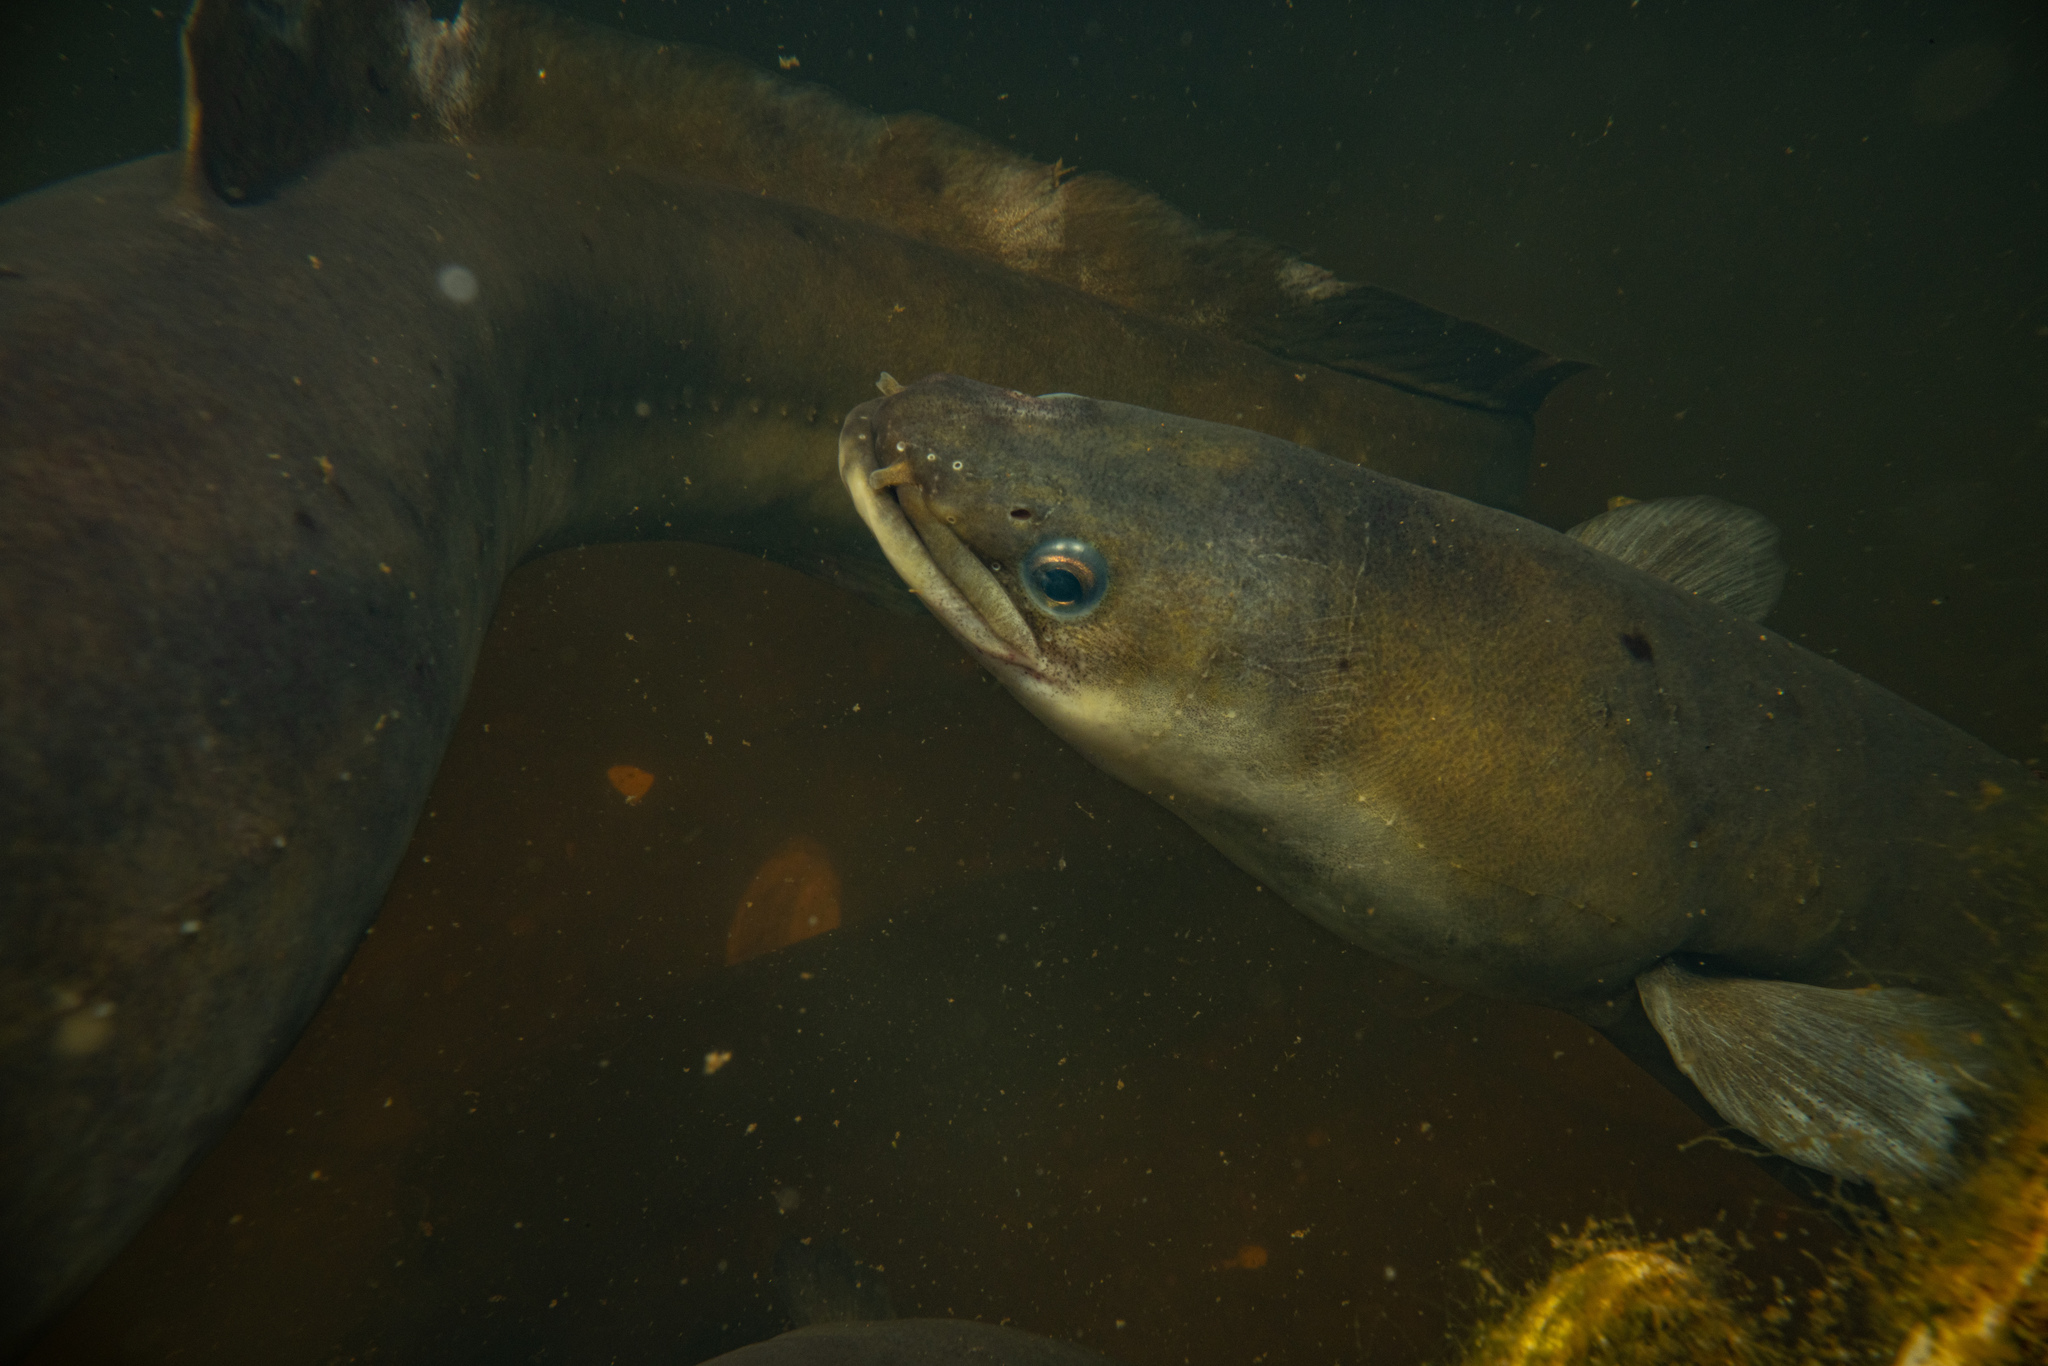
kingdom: Animalia
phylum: Chordata
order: Anguilliformes
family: Anguillidae
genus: Anguilla
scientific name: Anguilla australis
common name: Shortfin eel
